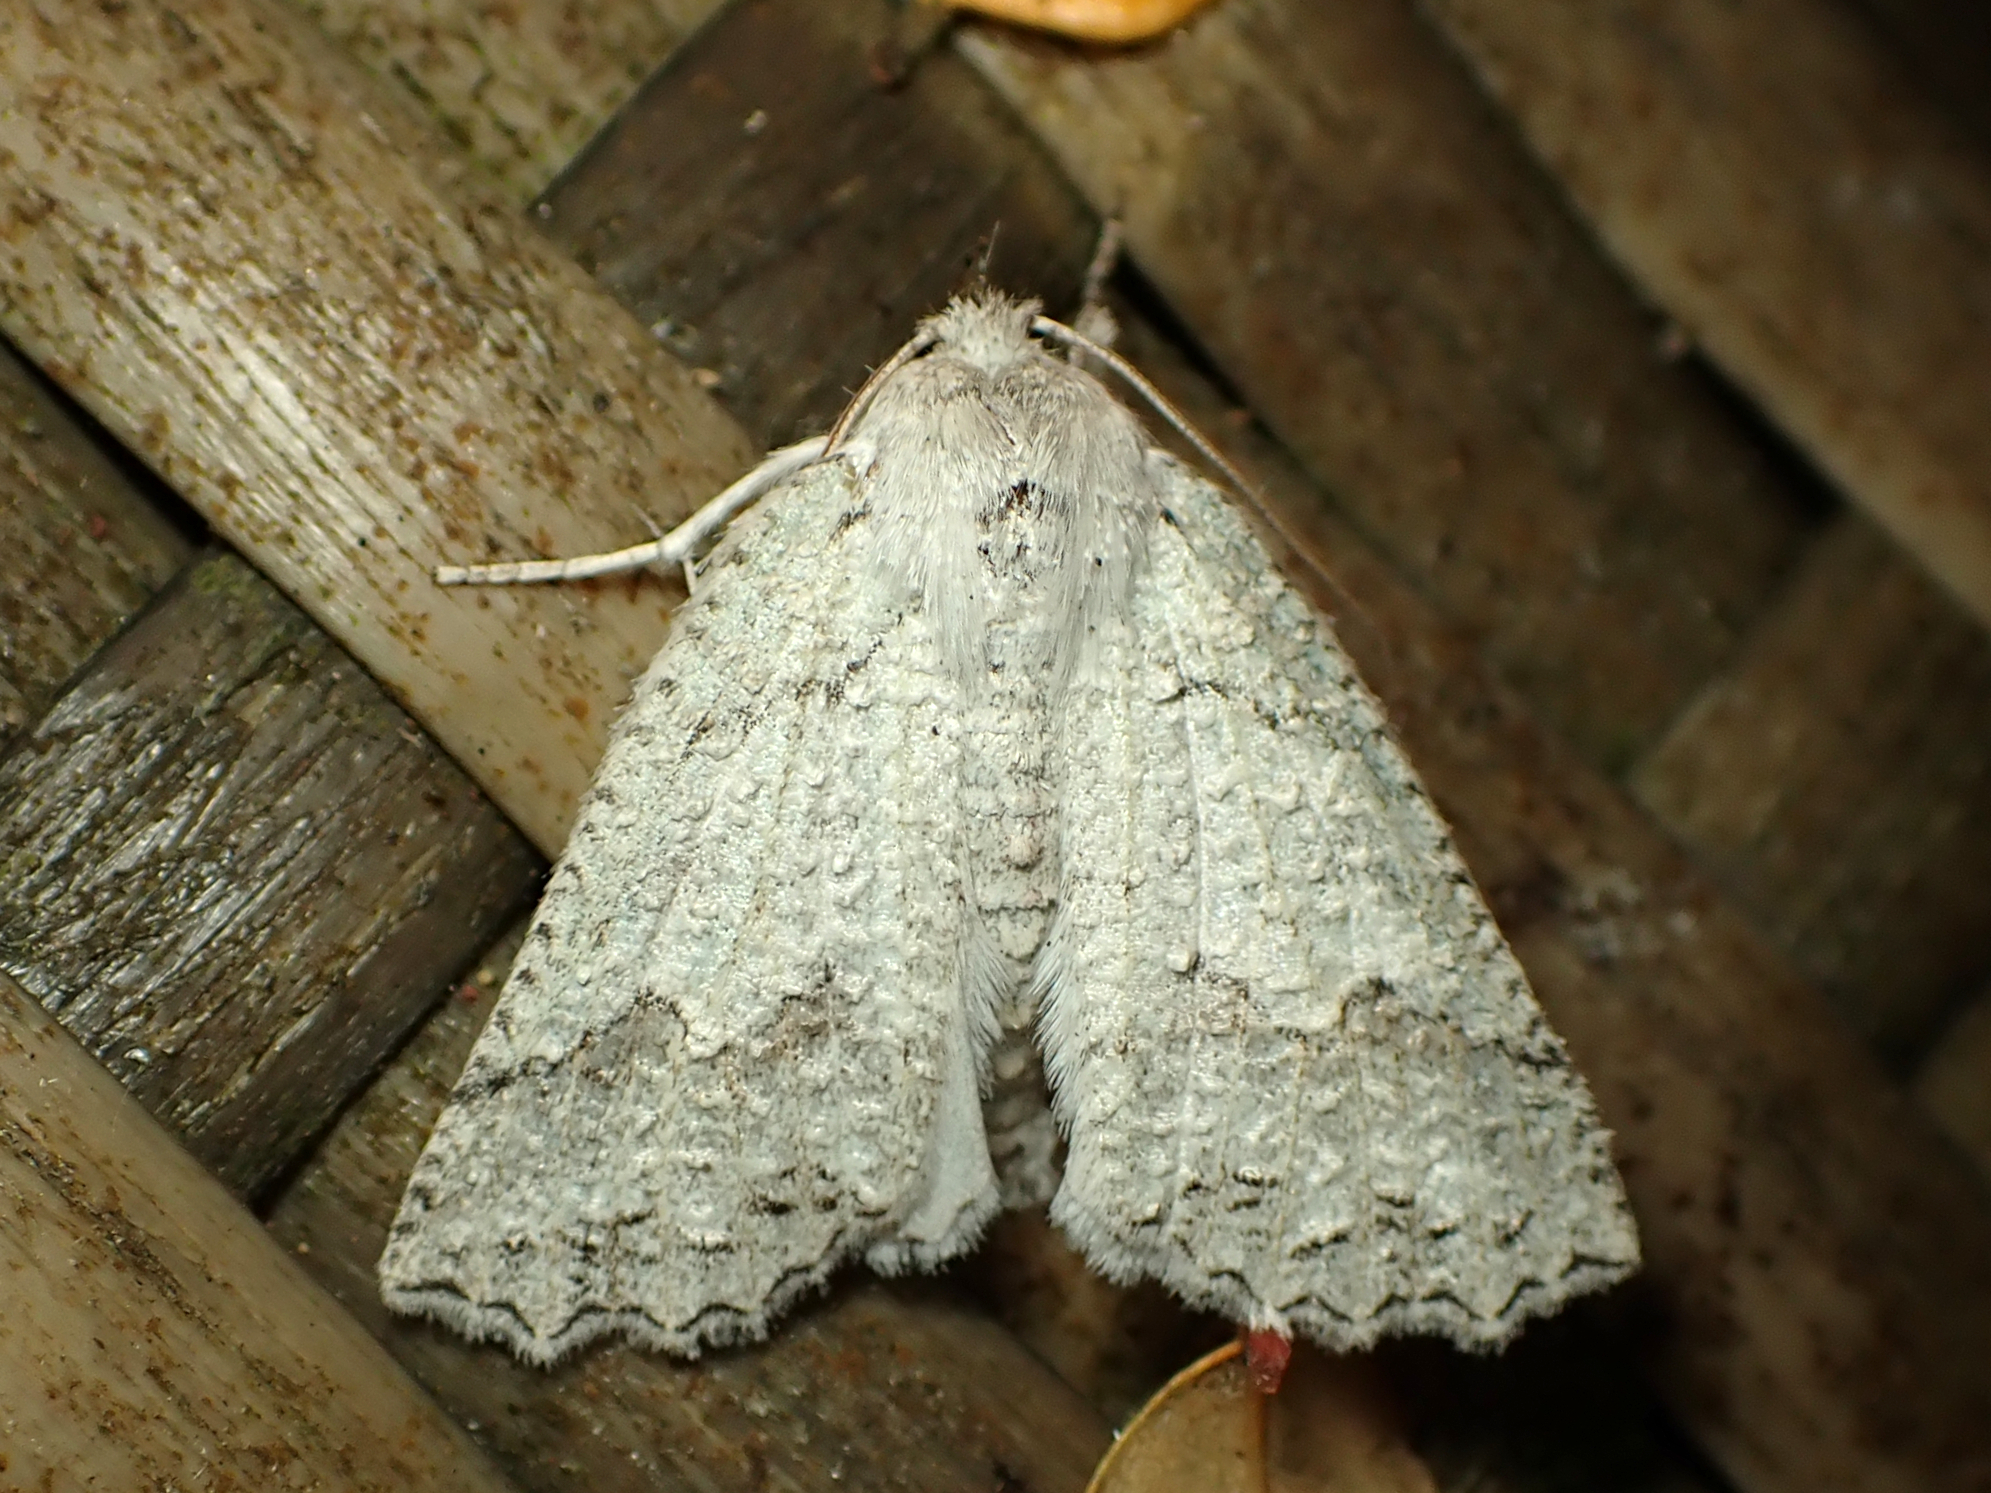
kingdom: Animalia
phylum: Arthropoda
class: Insecta
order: Lepidoptera
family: Geometridae
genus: Declana
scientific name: Declana niveata
